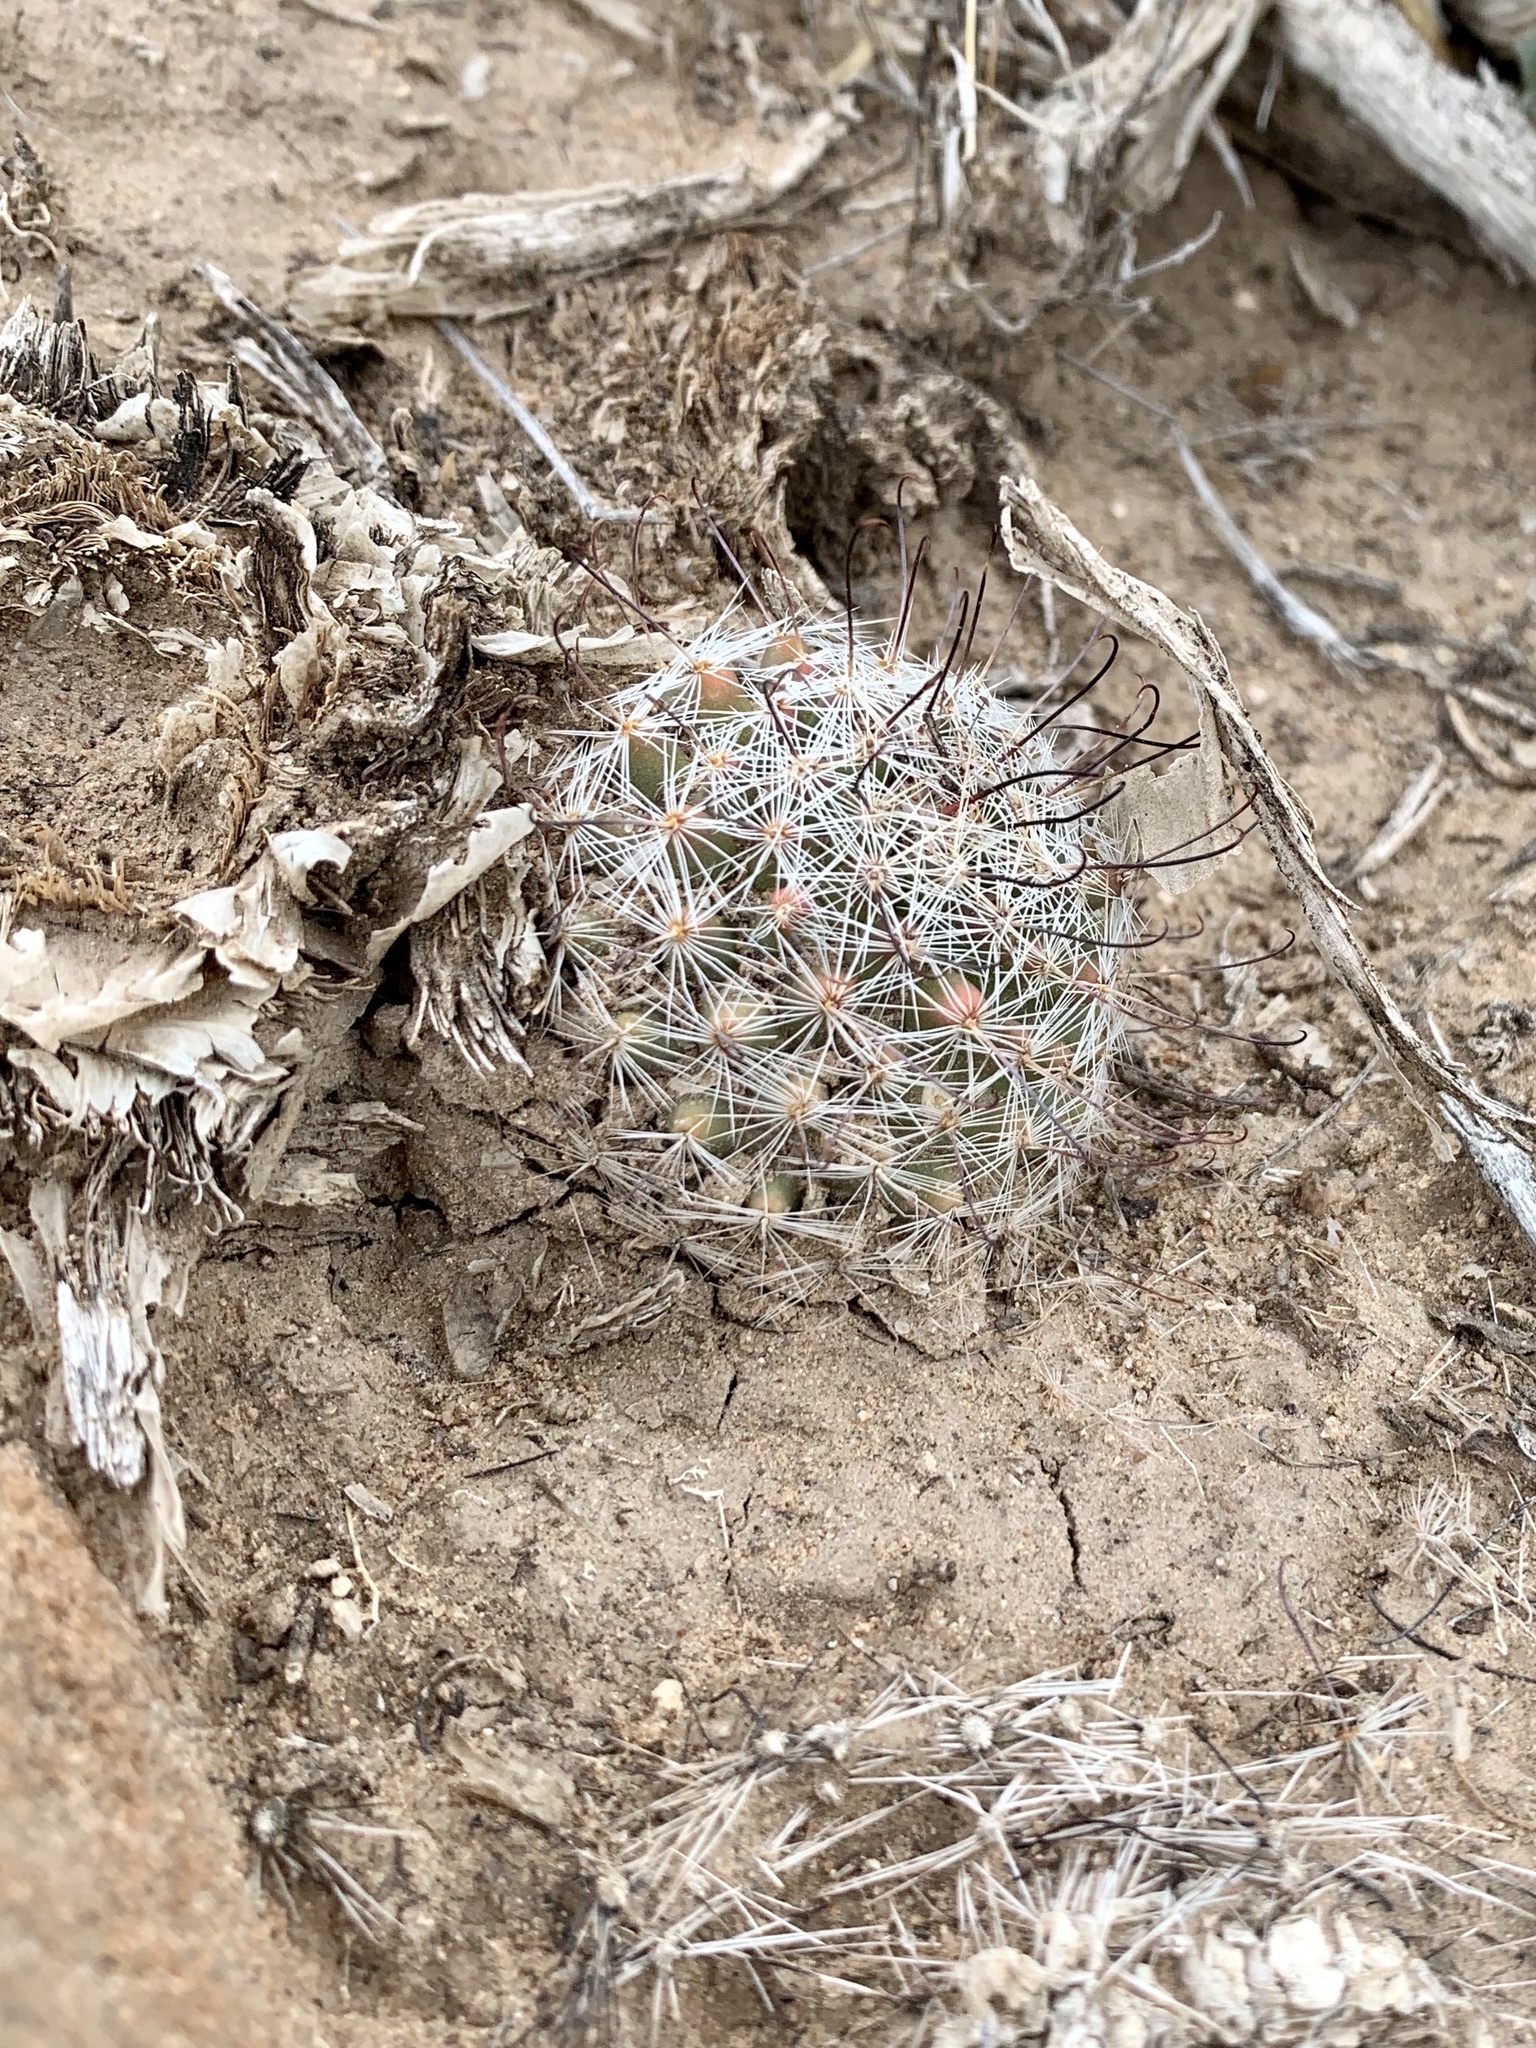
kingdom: Plantae
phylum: Tracheophyta
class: Magnoliopsida
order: Caryophyllales
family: Cactaceae
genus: Cochemiea
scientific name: Cochemiea grahamii
